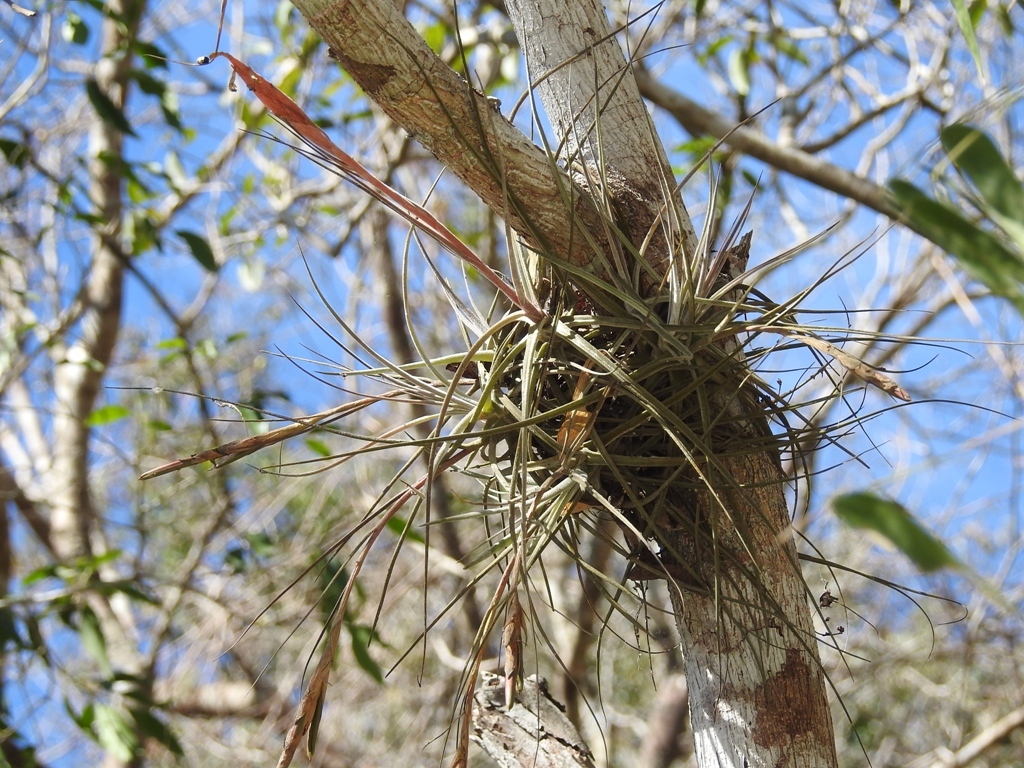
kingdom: Plantae
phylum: Tracheophyta
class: Liliopsida
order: Poales
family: Bromeliaceae
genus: Tillandsia
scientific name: Tillandsia schiedeana
